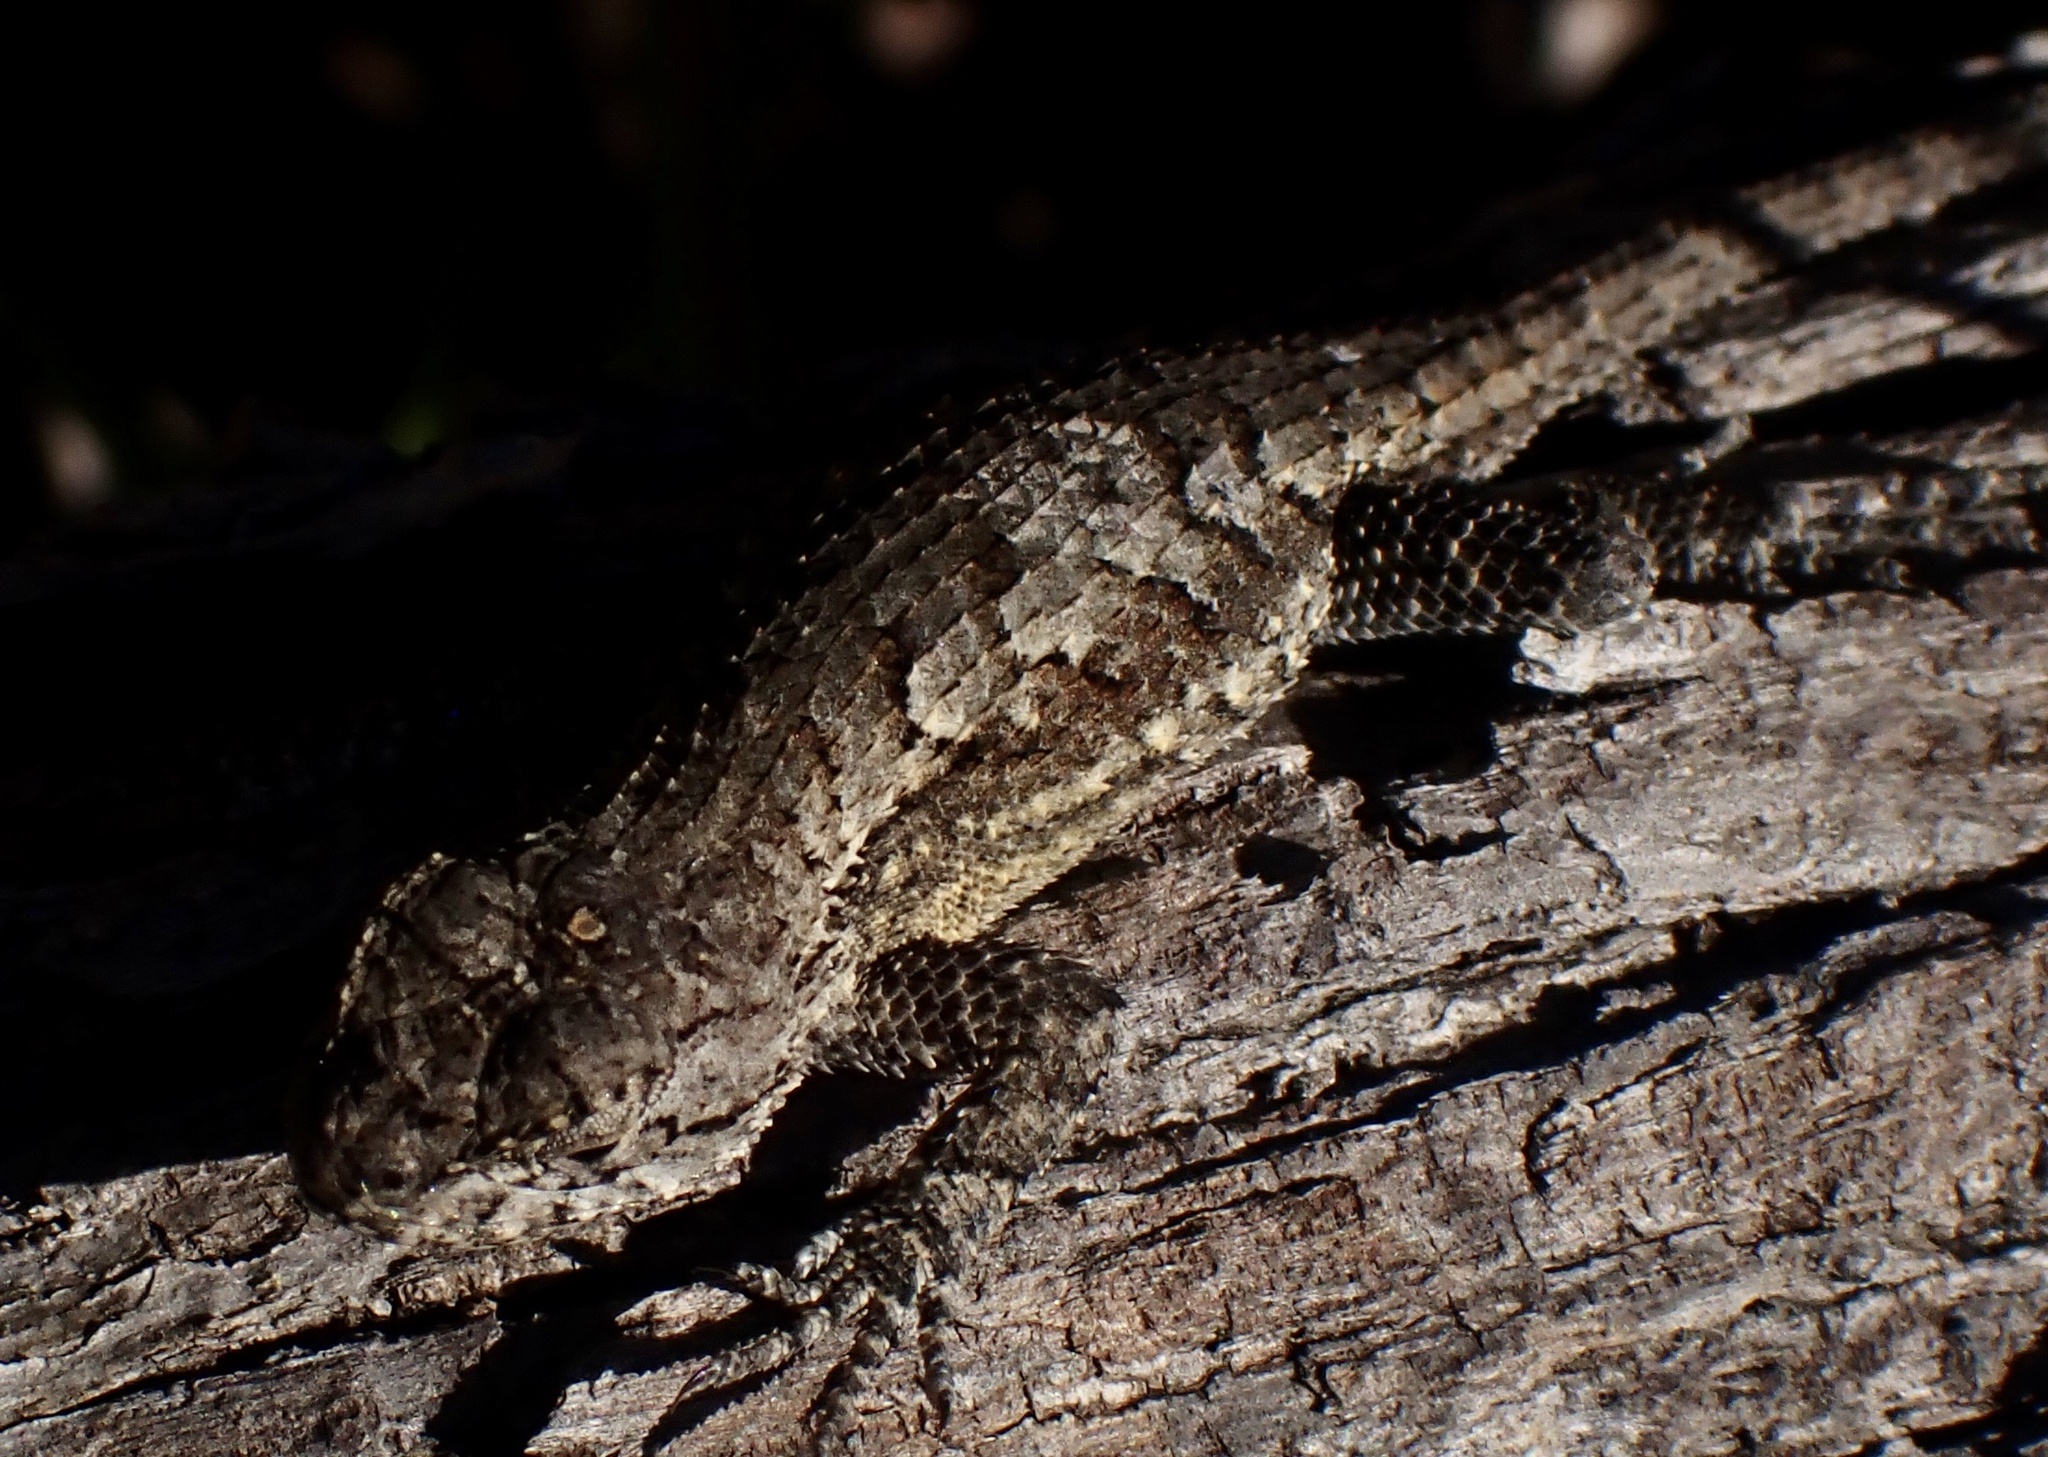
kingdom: Animalia
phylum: Chordata
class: Squamata
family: Phrynosomatidae
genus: Sceloporus
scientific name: Sceloporus undulatus
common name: Eastern fence lizard
